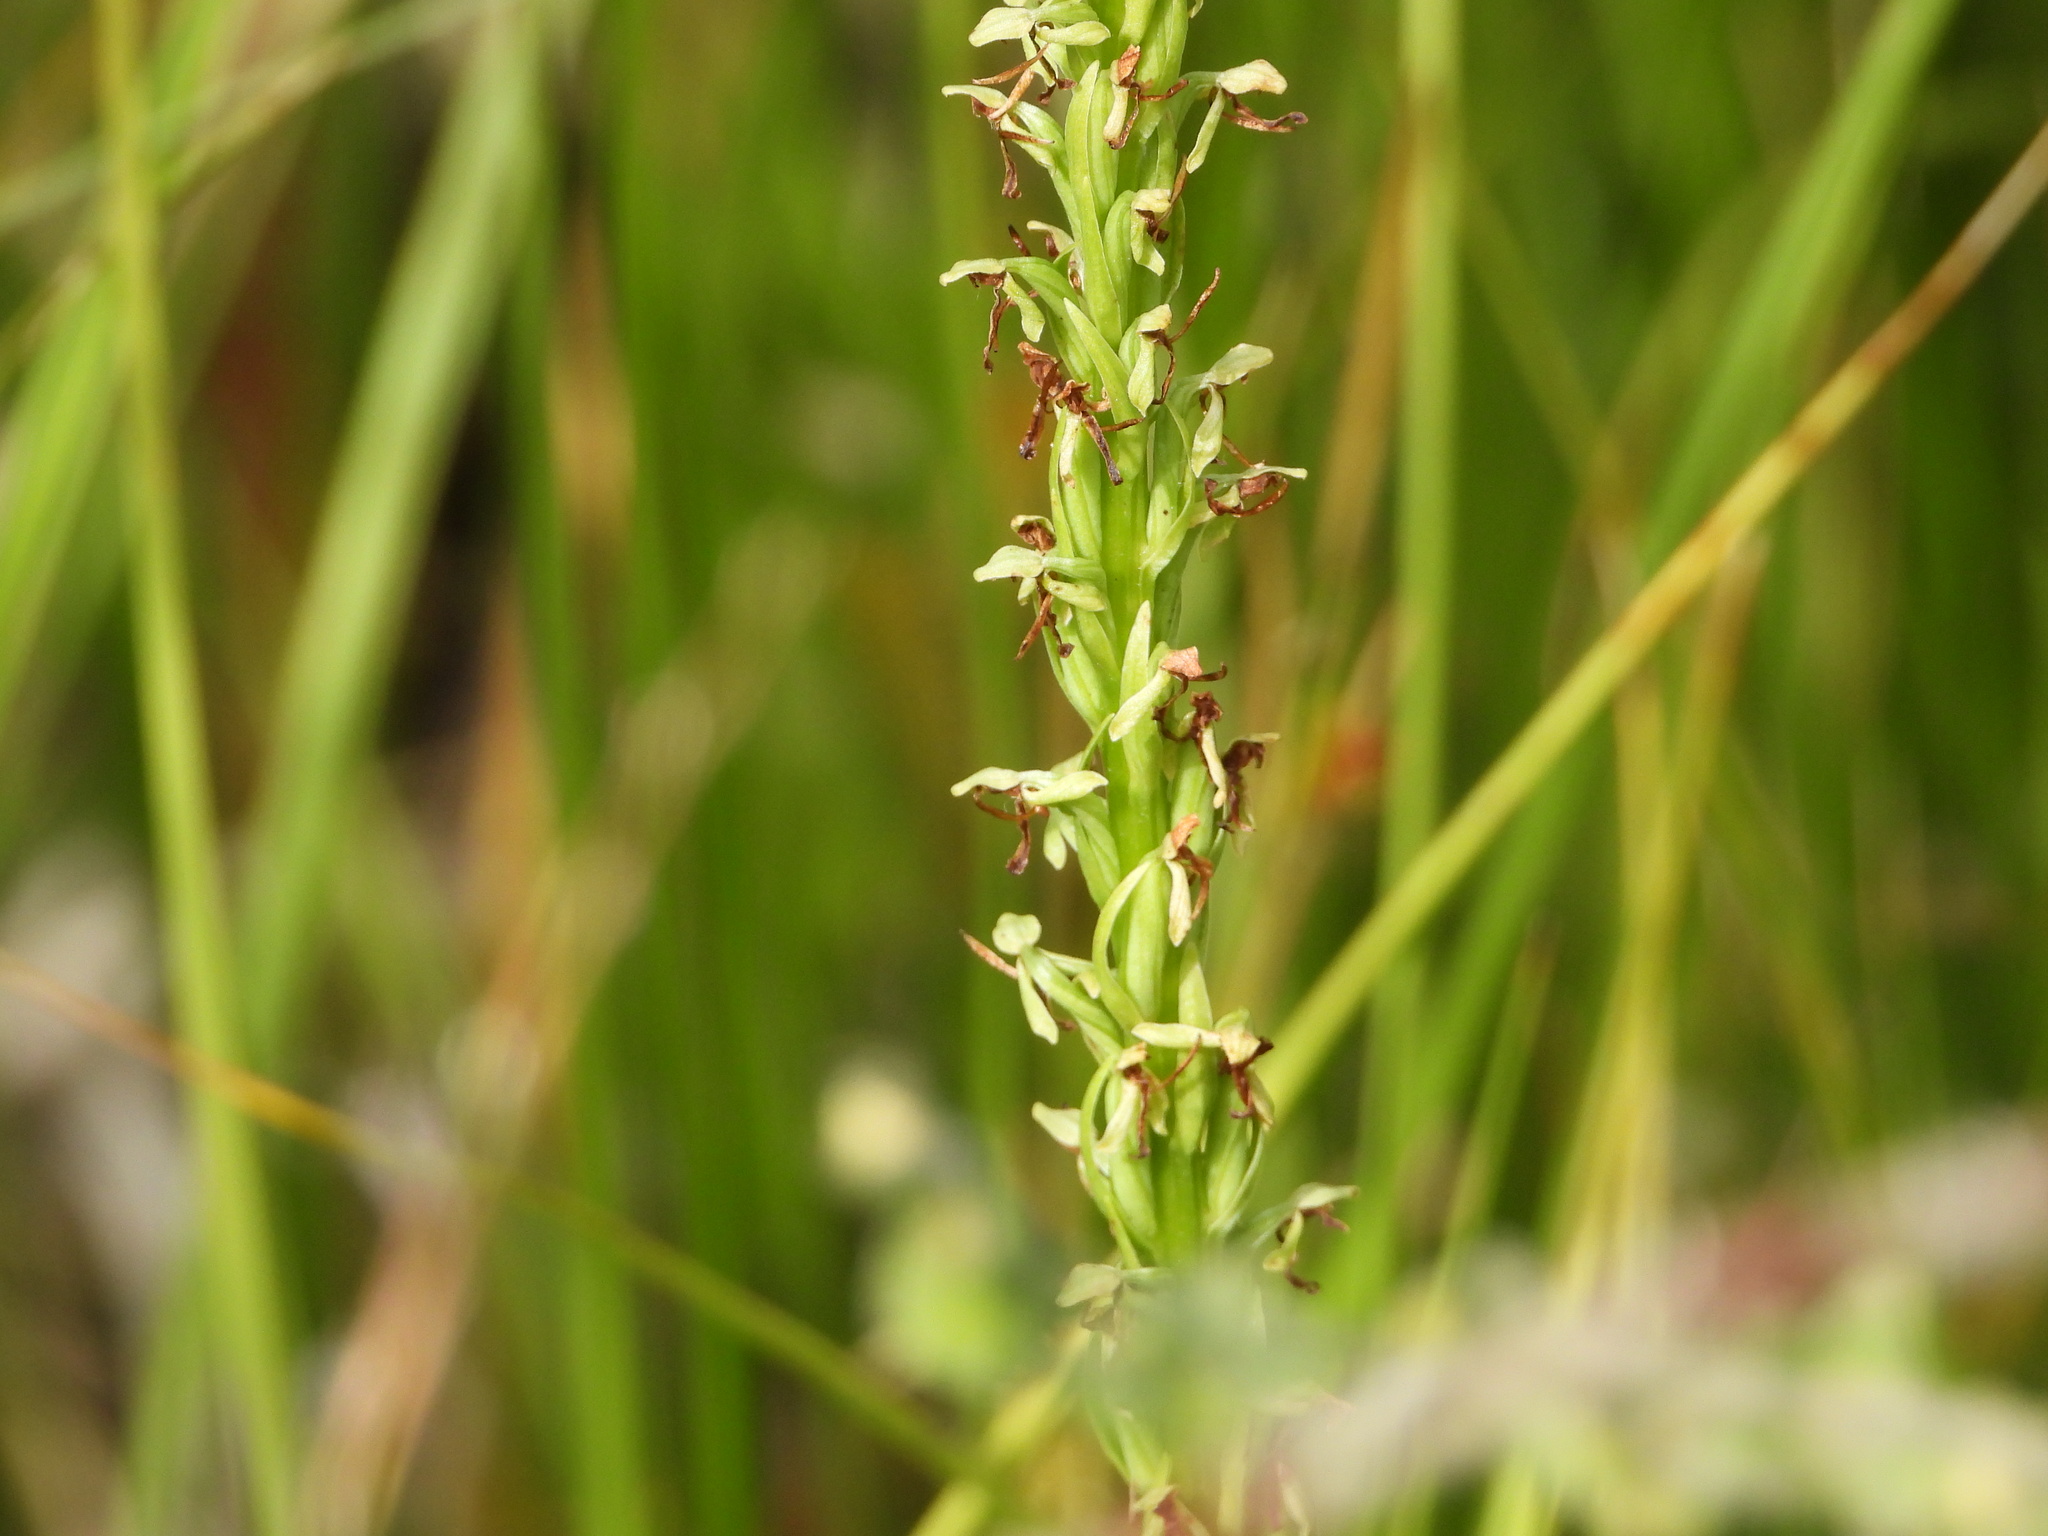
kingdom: Plantae
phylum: Tracheophyta
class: Liliopsida
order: Asparagales
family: Orchidaceae
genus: Platanthera
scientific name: Platanthera sparsiflora
